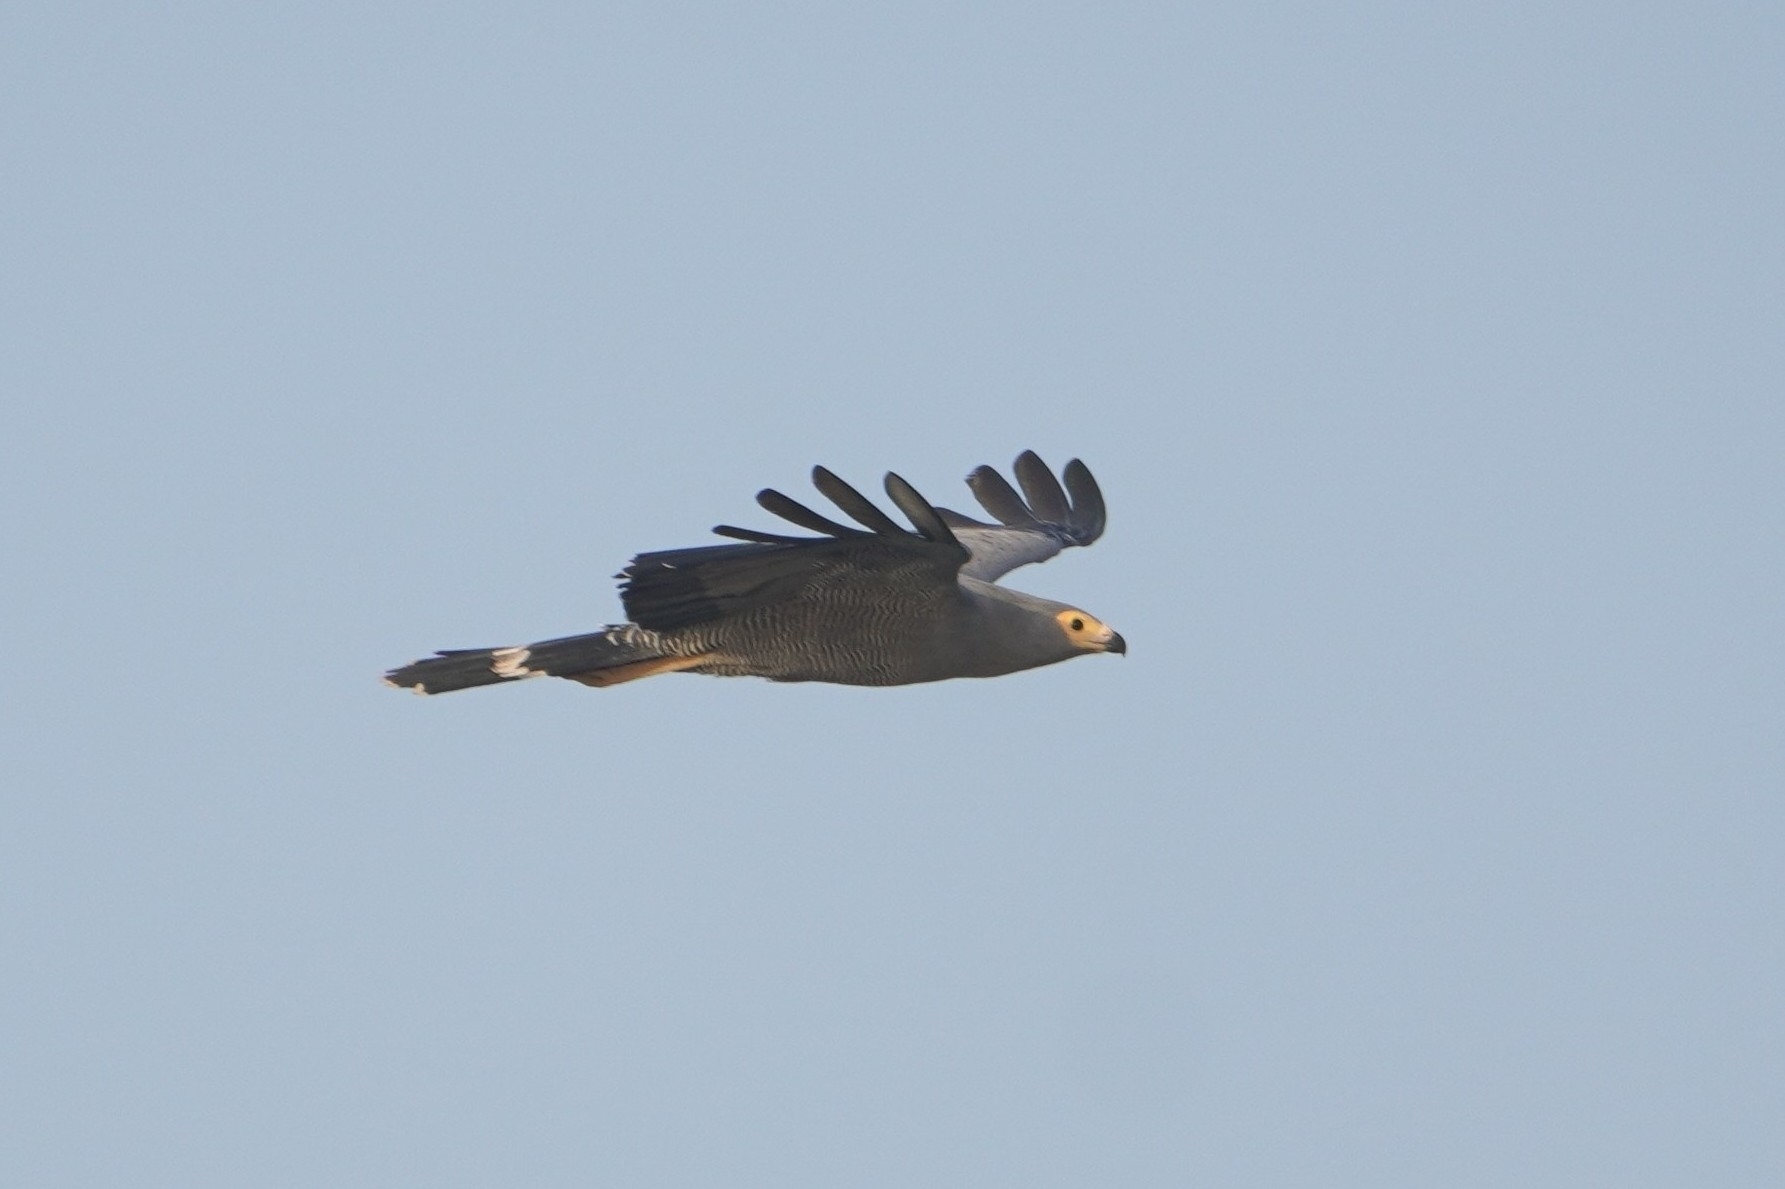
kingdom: Animalia
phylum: Chordata
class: Aves
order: Accipitriformes
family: Accipitridae
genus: Polyboroides
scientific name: Polyboroides typus
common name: African harrier-hawk
